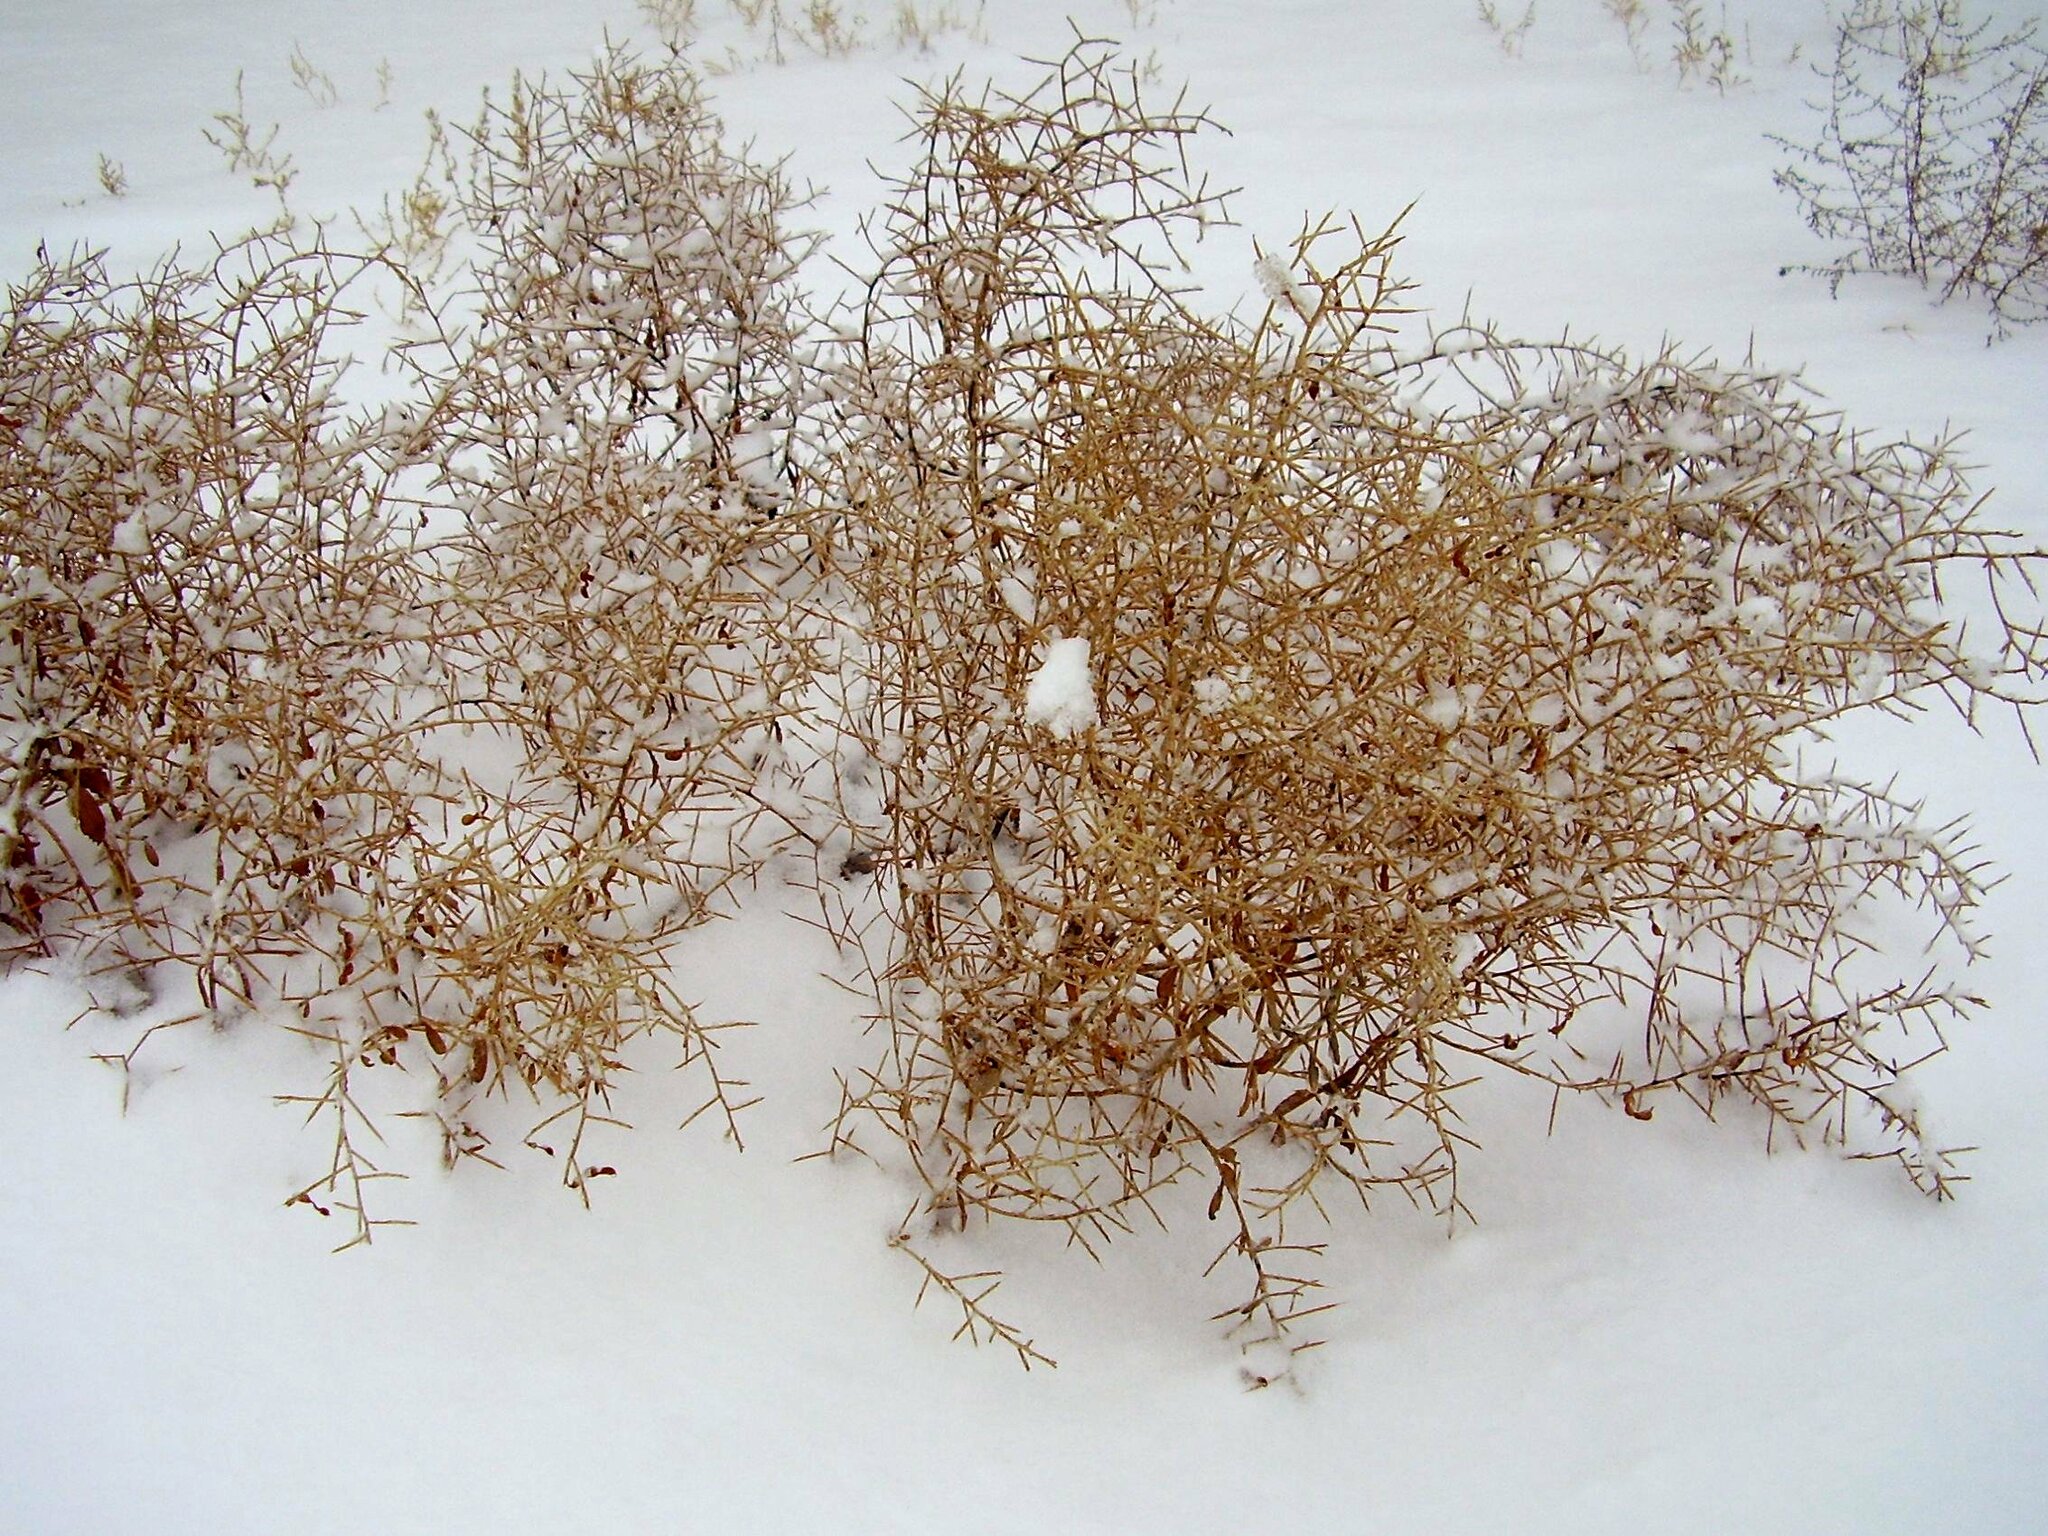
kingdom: Plantae
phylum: Tracheophyta
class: Magnoliopsida
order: Fabales
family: Fabaceae
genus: Alhagi
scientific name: Alhagi pseudalhagi
